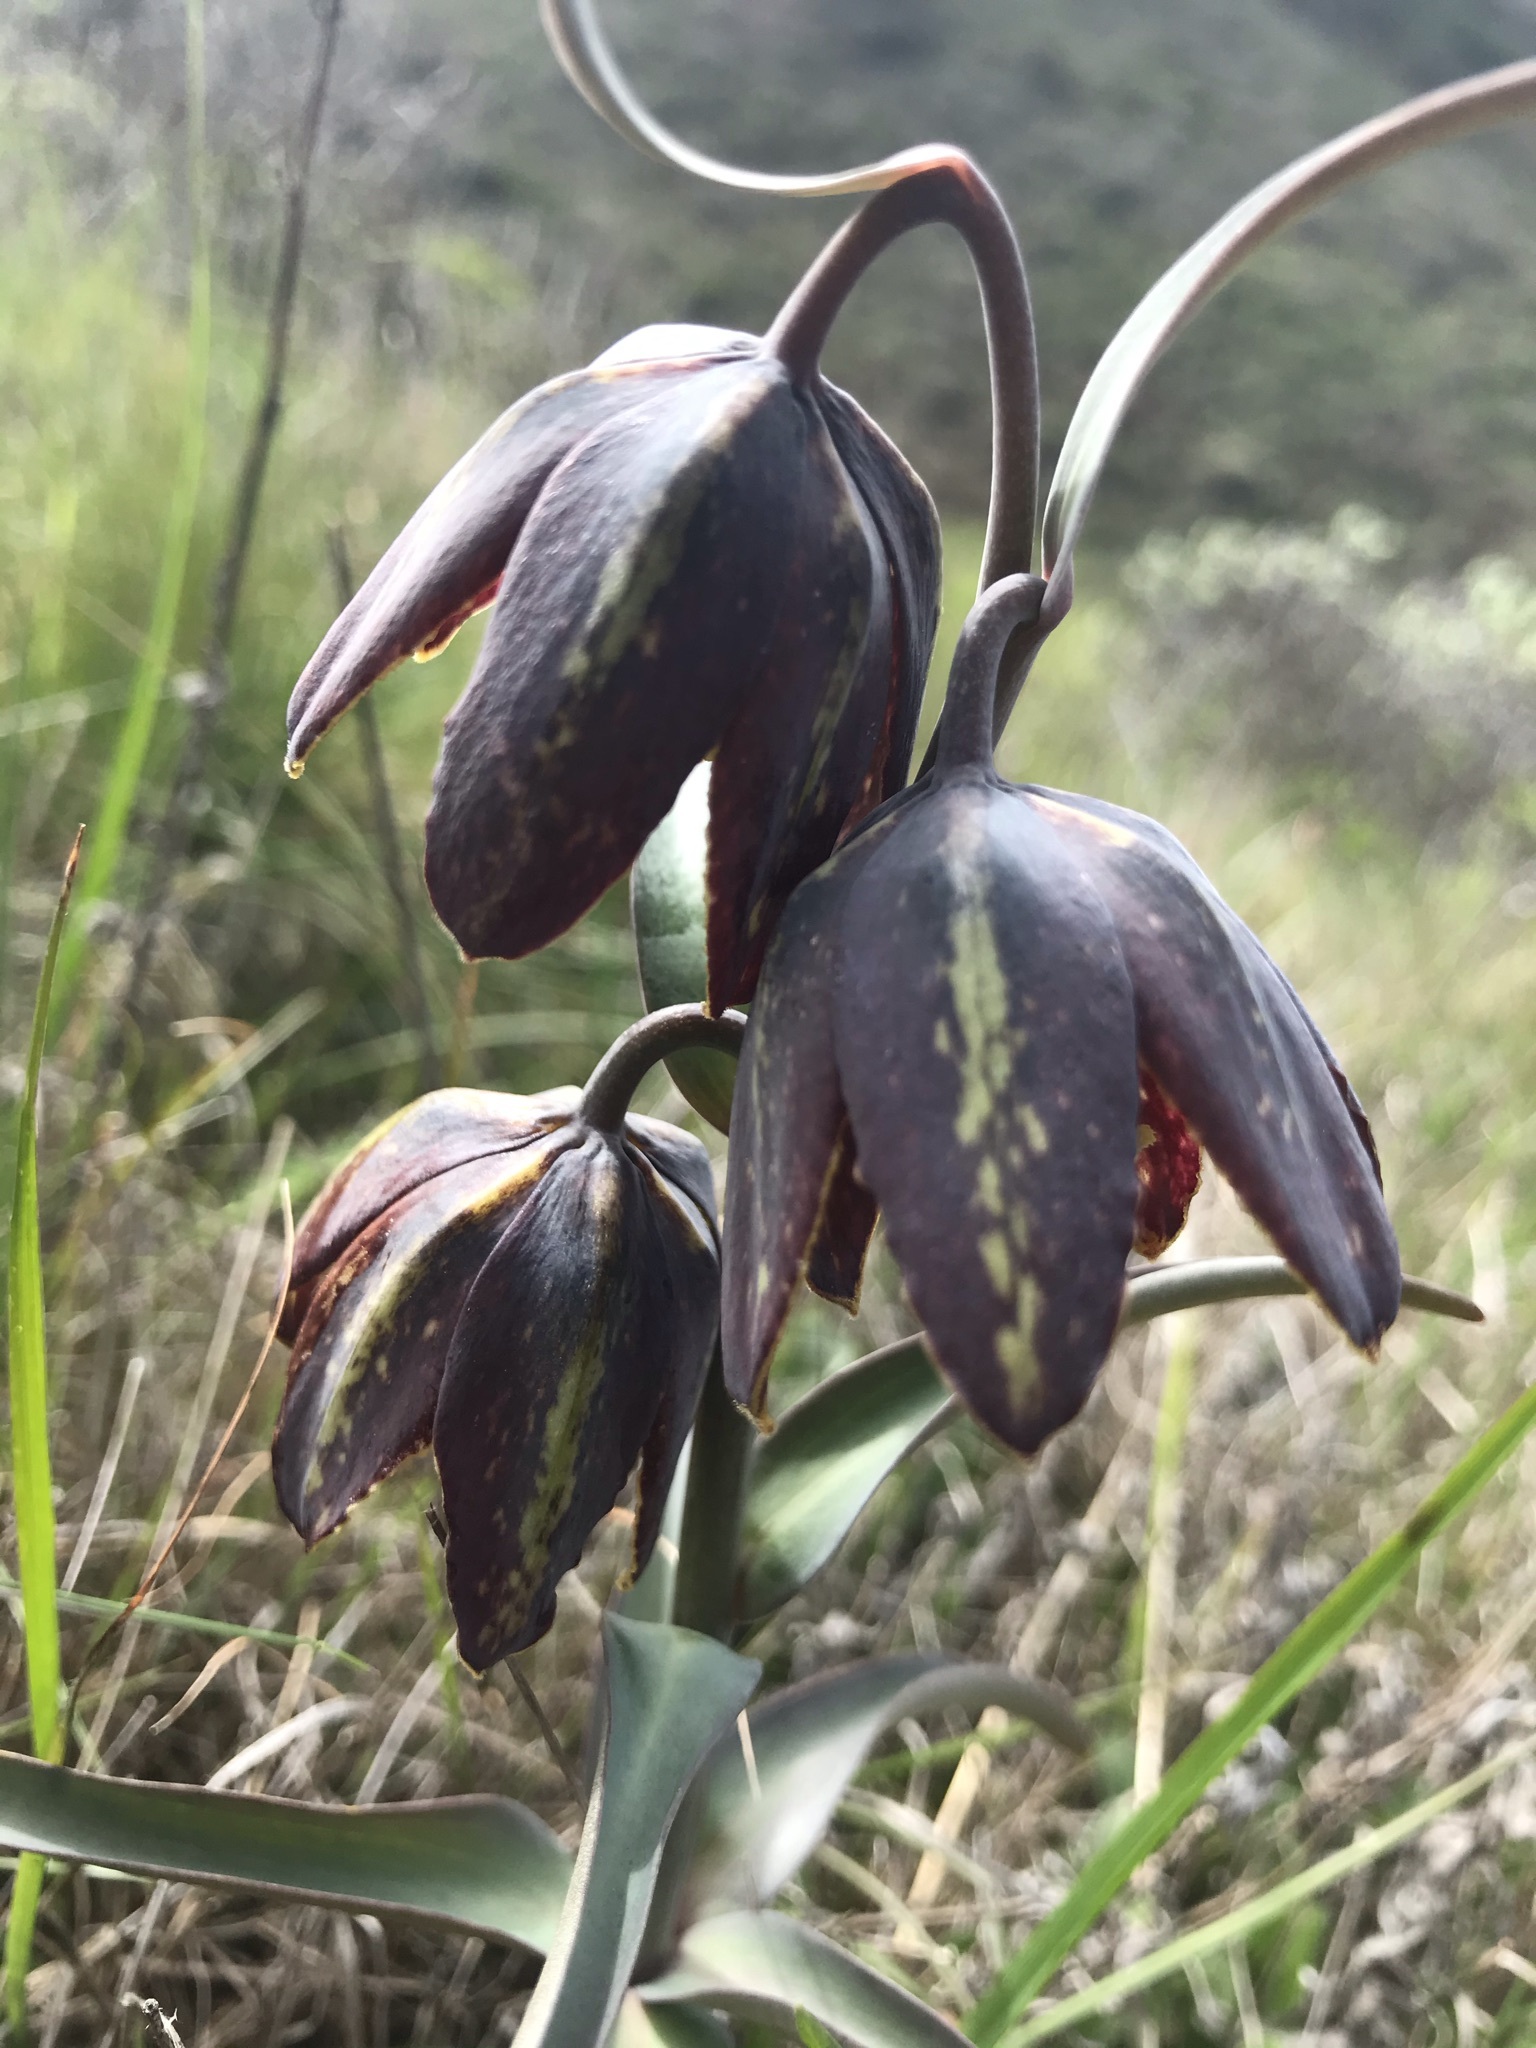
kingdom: Plantae
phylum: Tracheophyta
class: Liliopsida
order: Liliales
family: Liliaceae
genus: Fritillaria
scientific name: Fritillaria affinis
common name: Ojai fritillary
